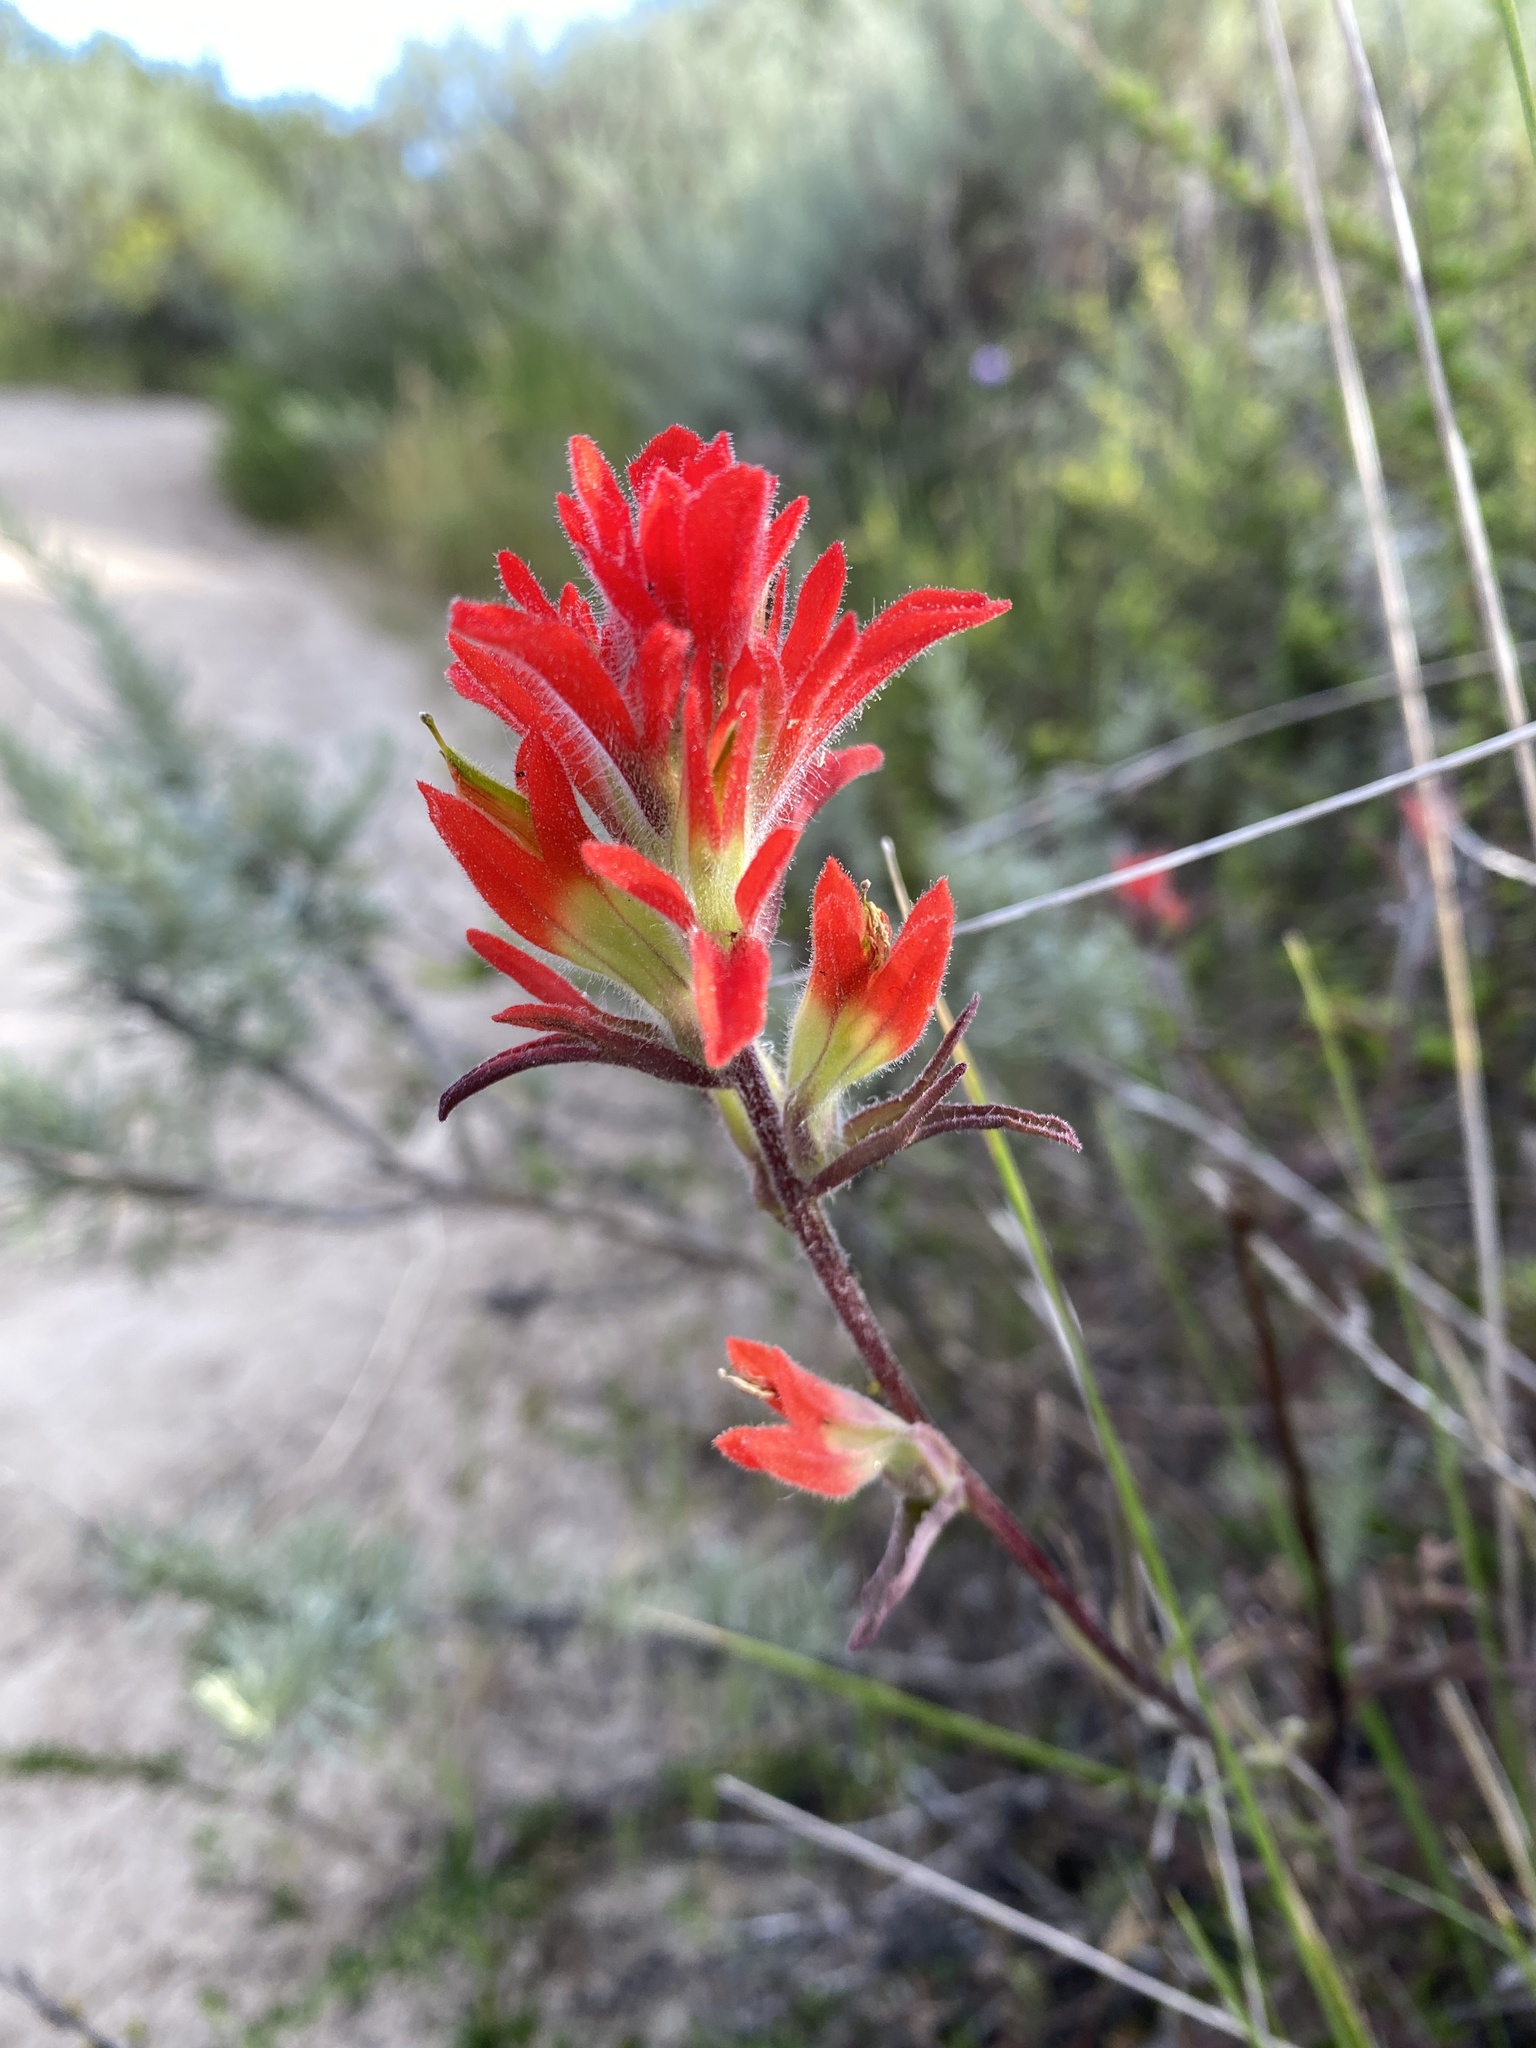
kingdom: Plantae
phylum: Tracheophyta
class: Magnoliopsida
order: Lamiales
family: Orobanchaceae
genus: Castilleja
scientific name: Castilleja affinis
